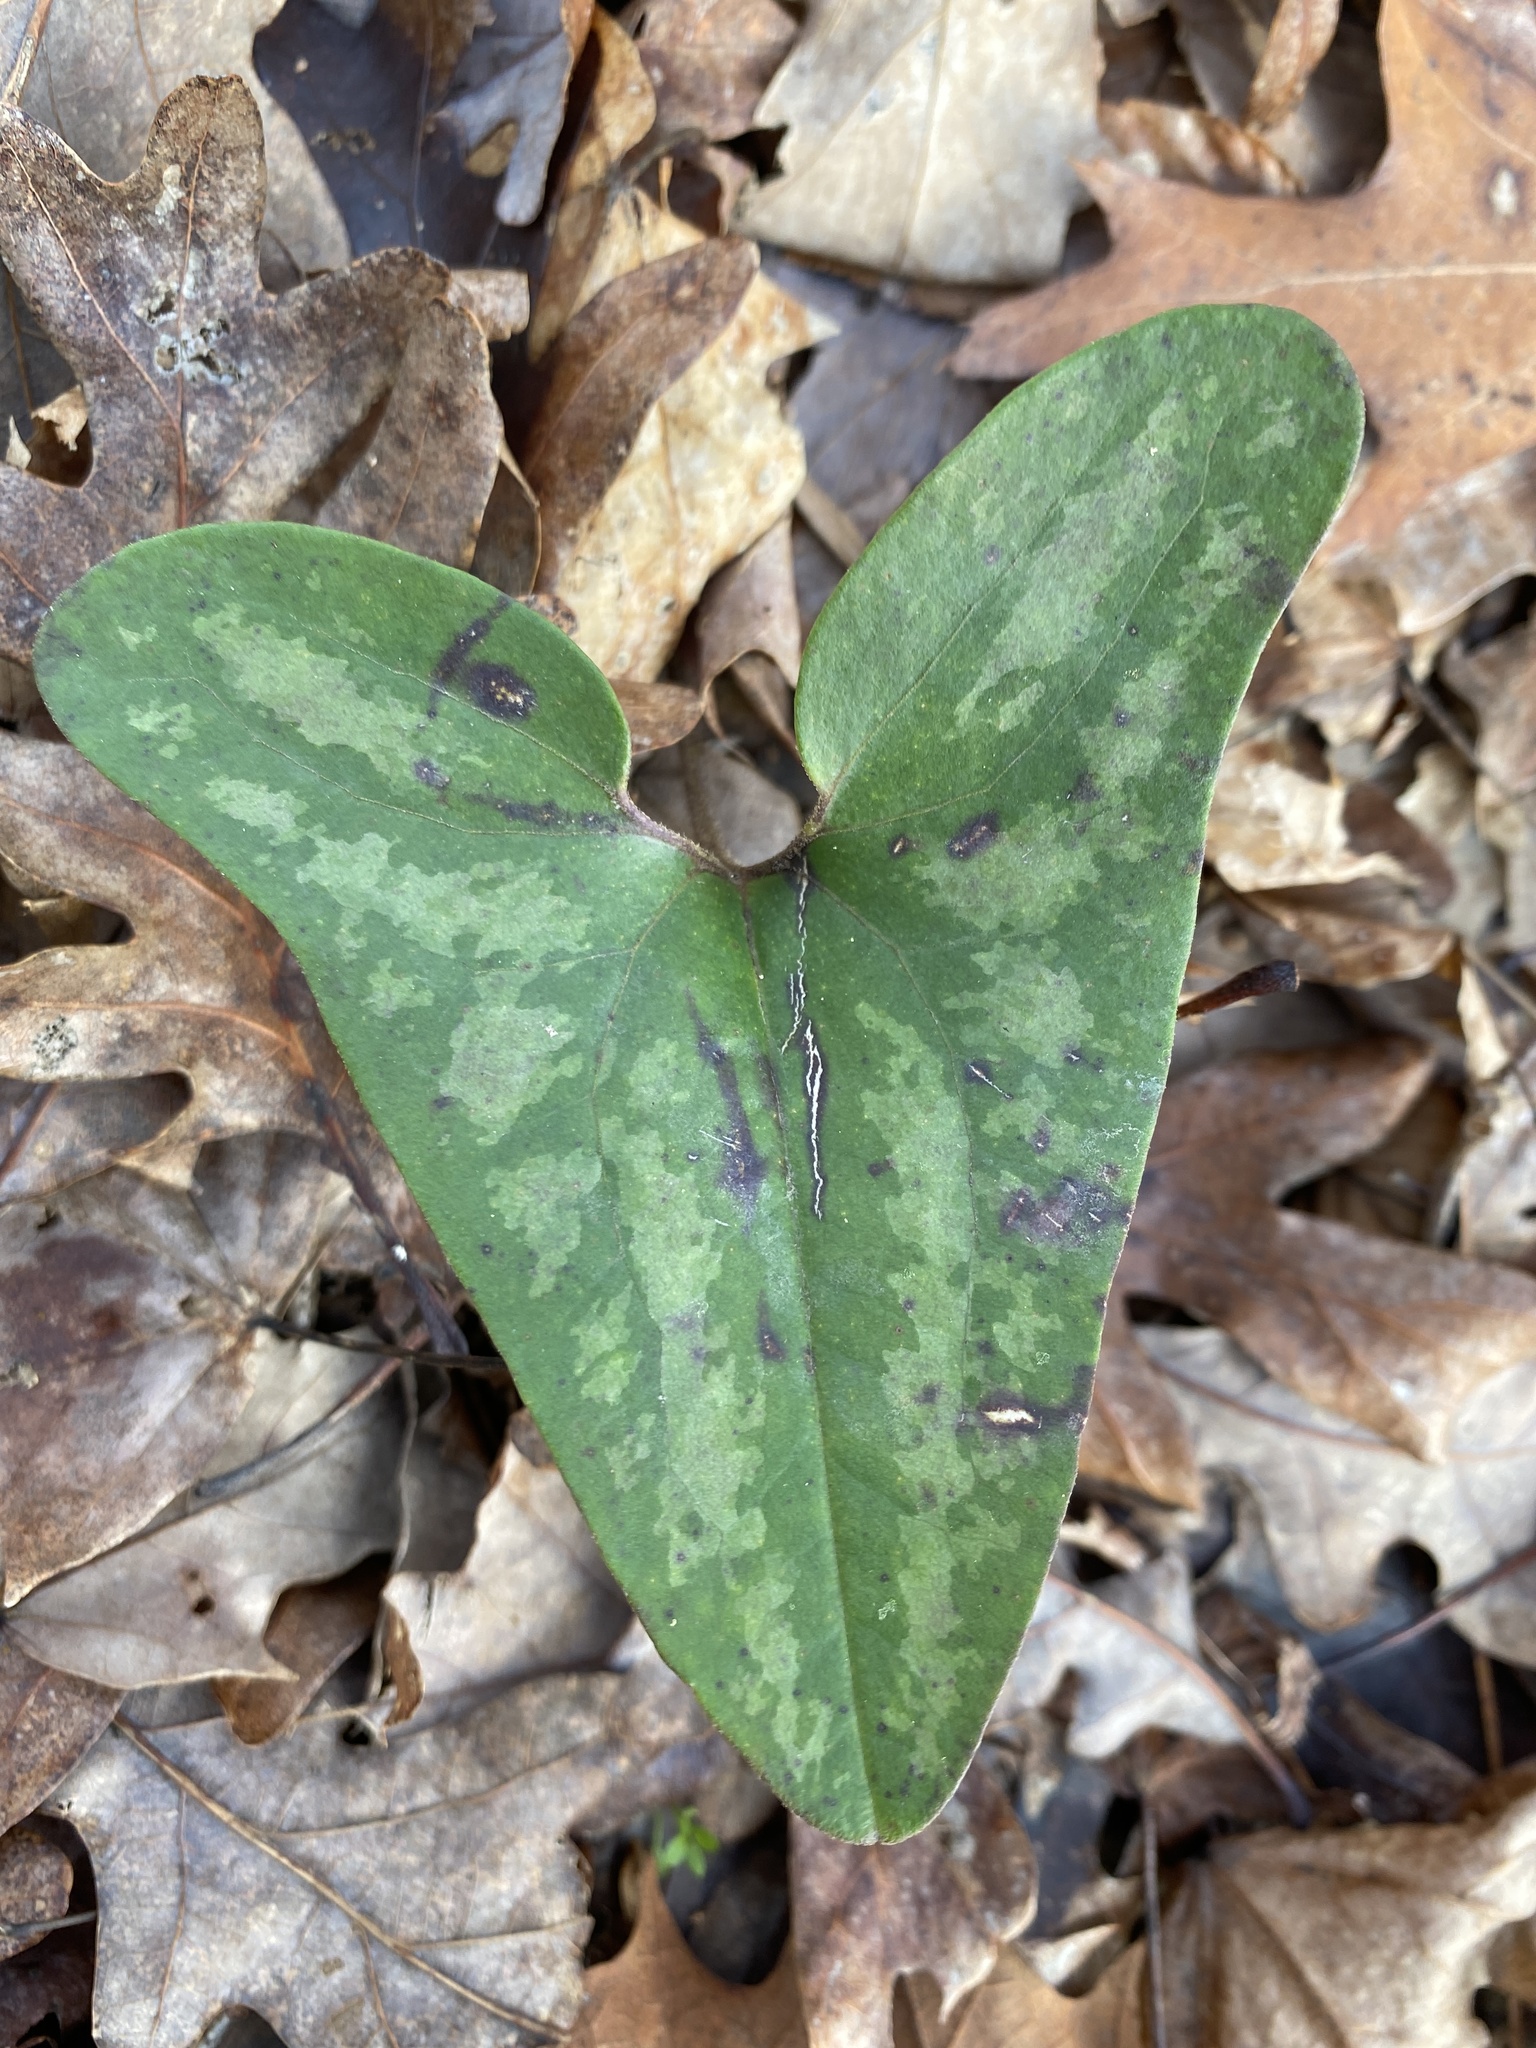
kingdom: Plantae
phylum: Tracheophyta
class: Magnoliopsida
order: Piperales
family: Aristolochiaceae
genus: Hexastylis
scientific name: Hexastylis arifolia
